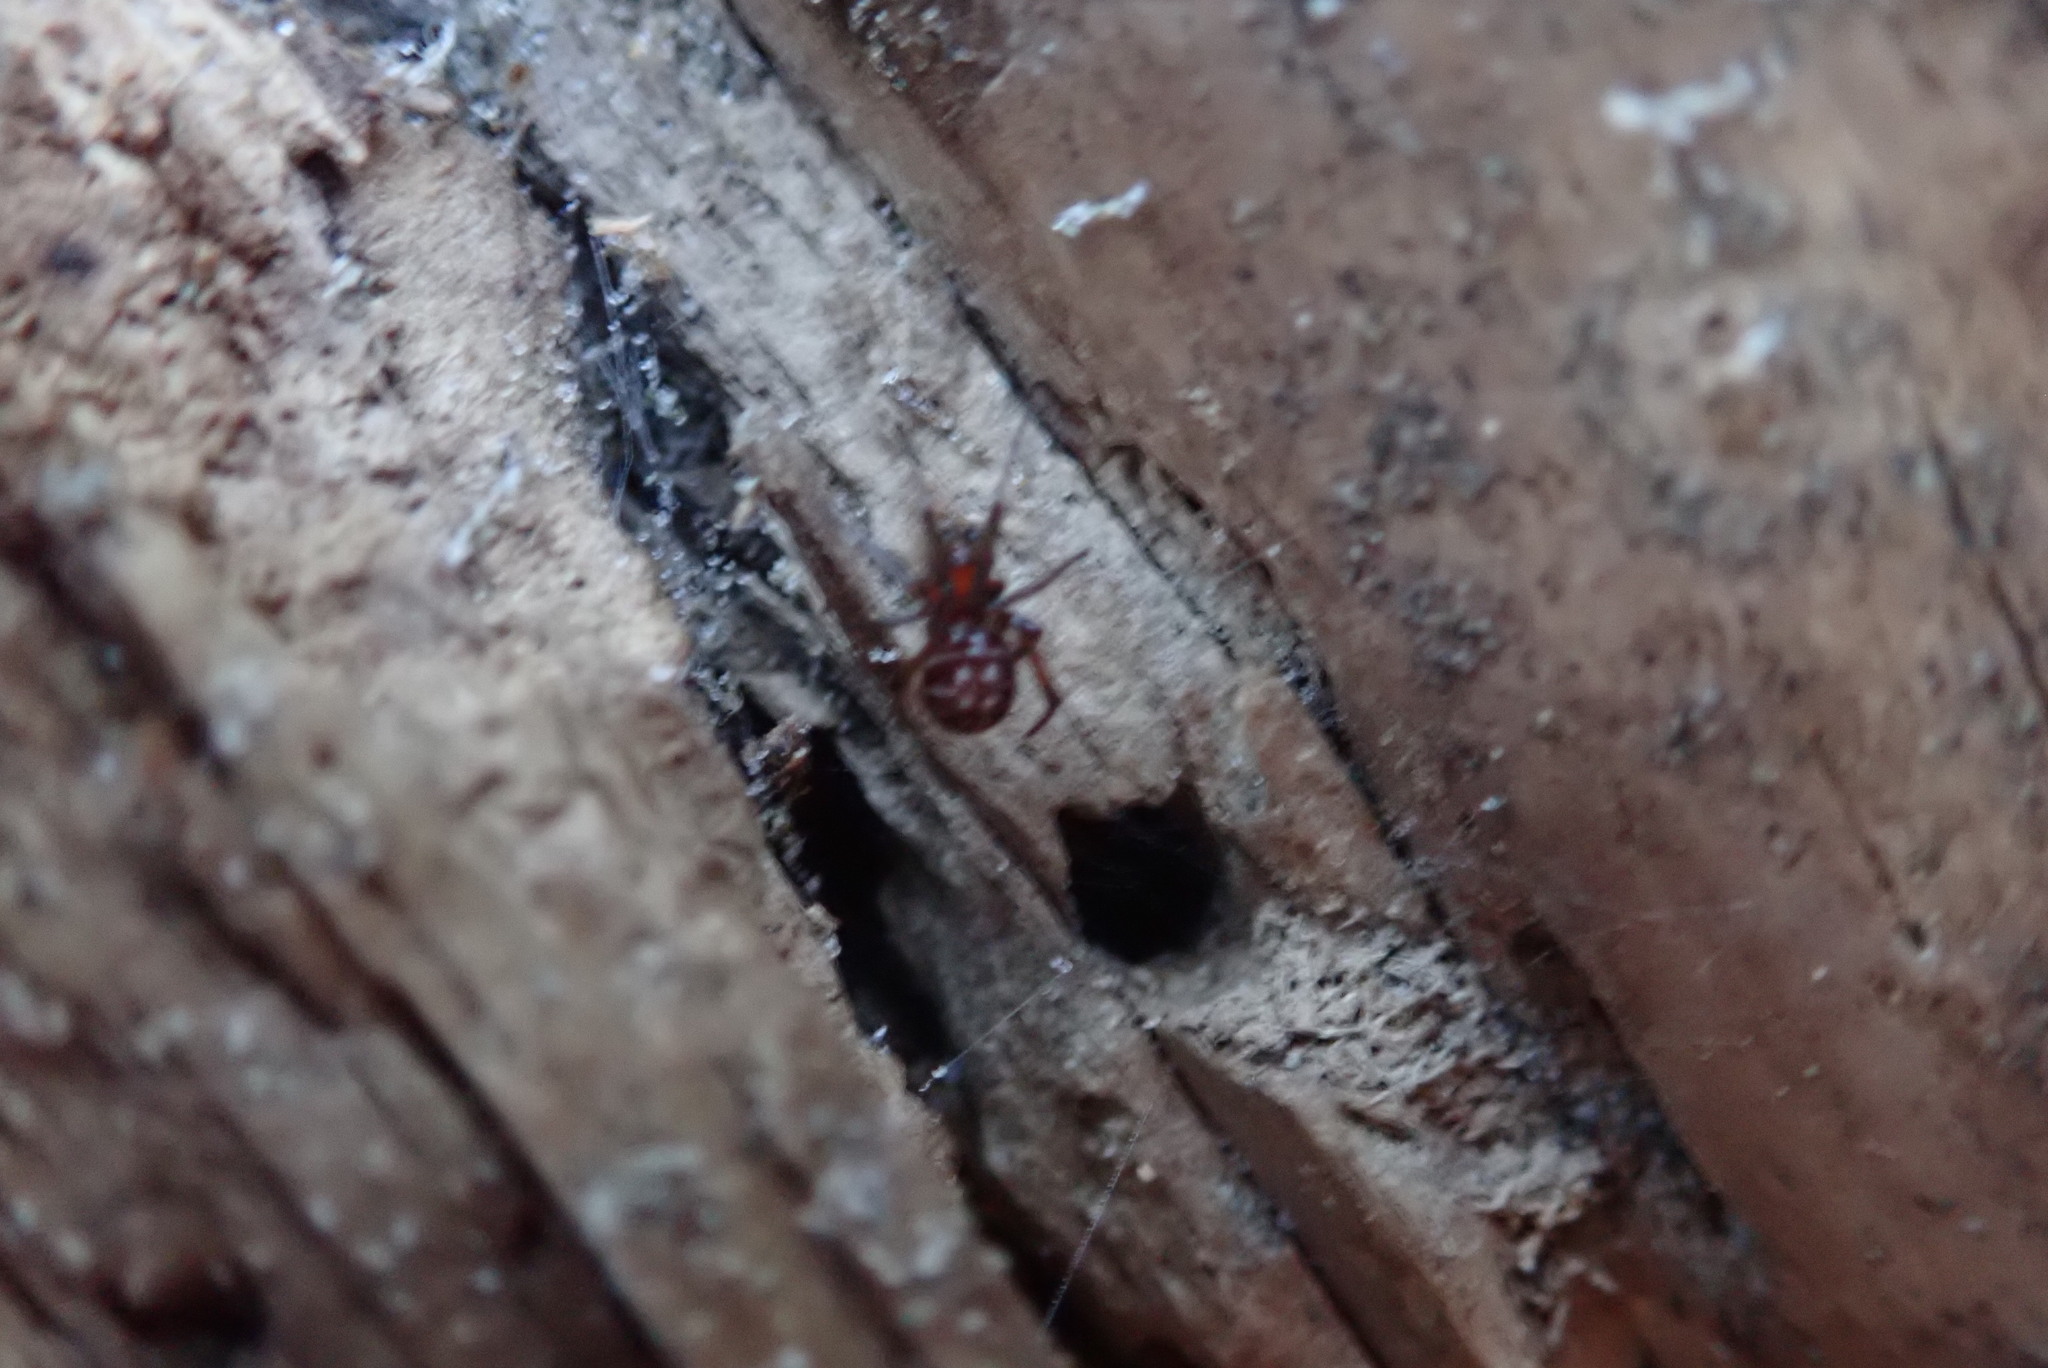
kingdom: Animalia
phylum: Arthropoda
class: Arachnida
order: Araneae
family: Theridiidae
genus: Steatoda
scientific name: Steatoda capensis
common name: Cobweb weaver
